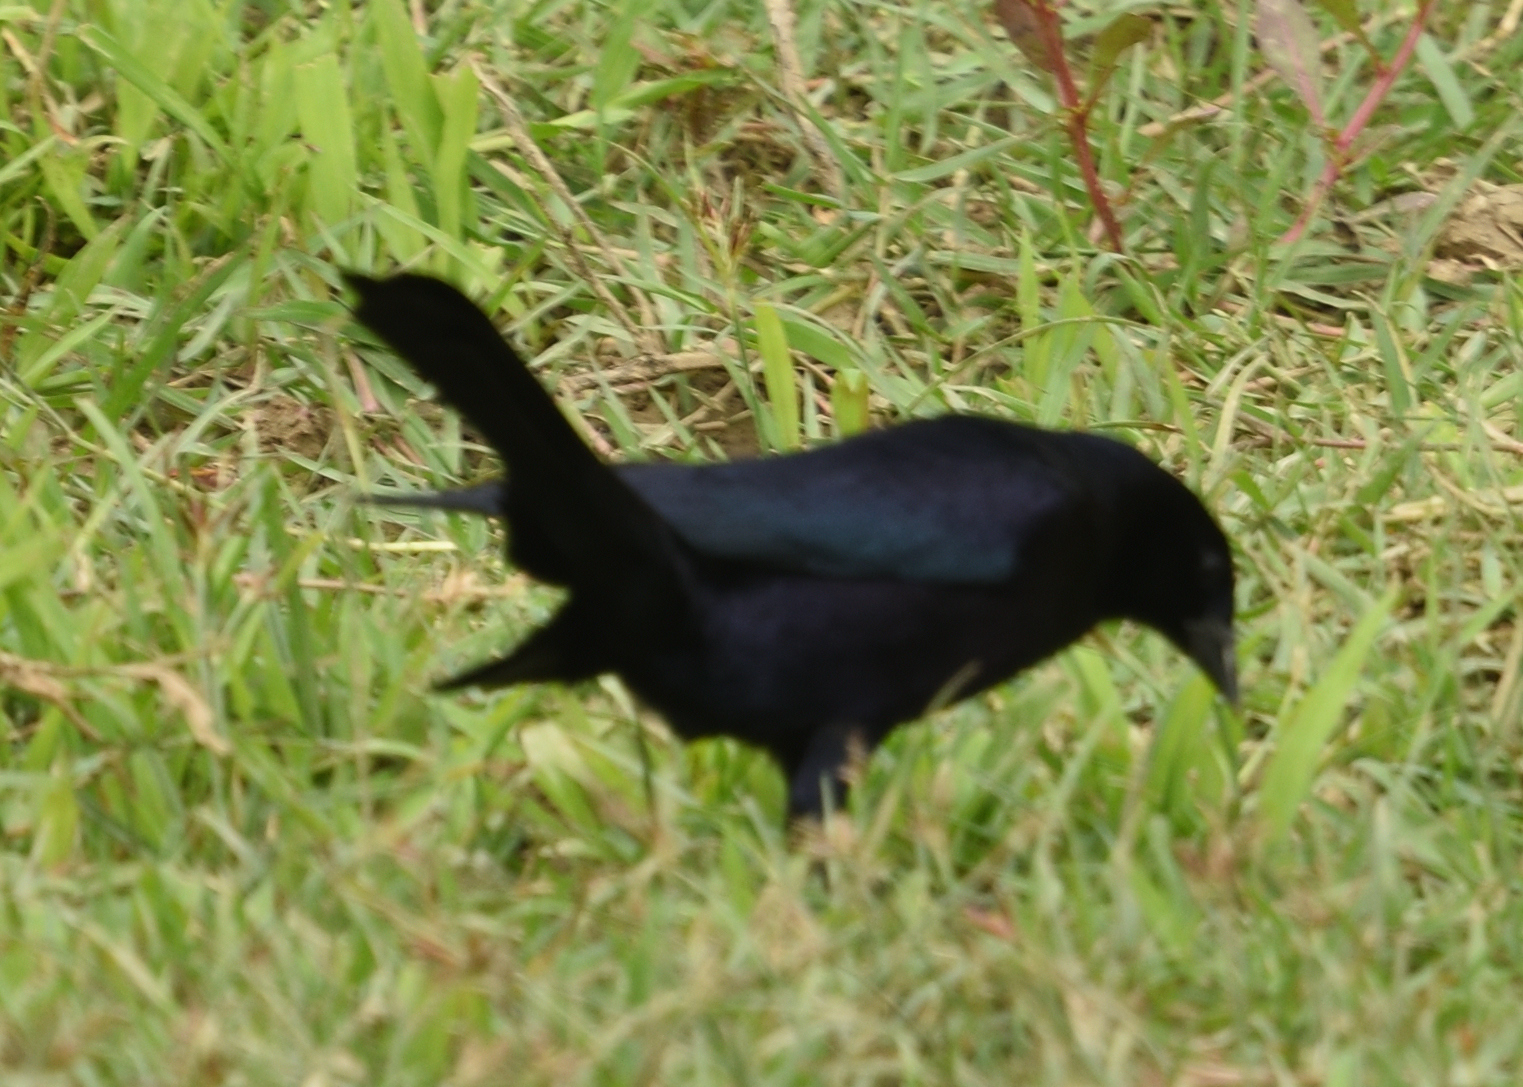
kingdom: Animalia
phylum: Chordata
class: Aves
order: Passeriformes
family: Icteridae
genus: Molothrus
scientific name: Molothrus bonariensis
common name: Shiny cowbird
